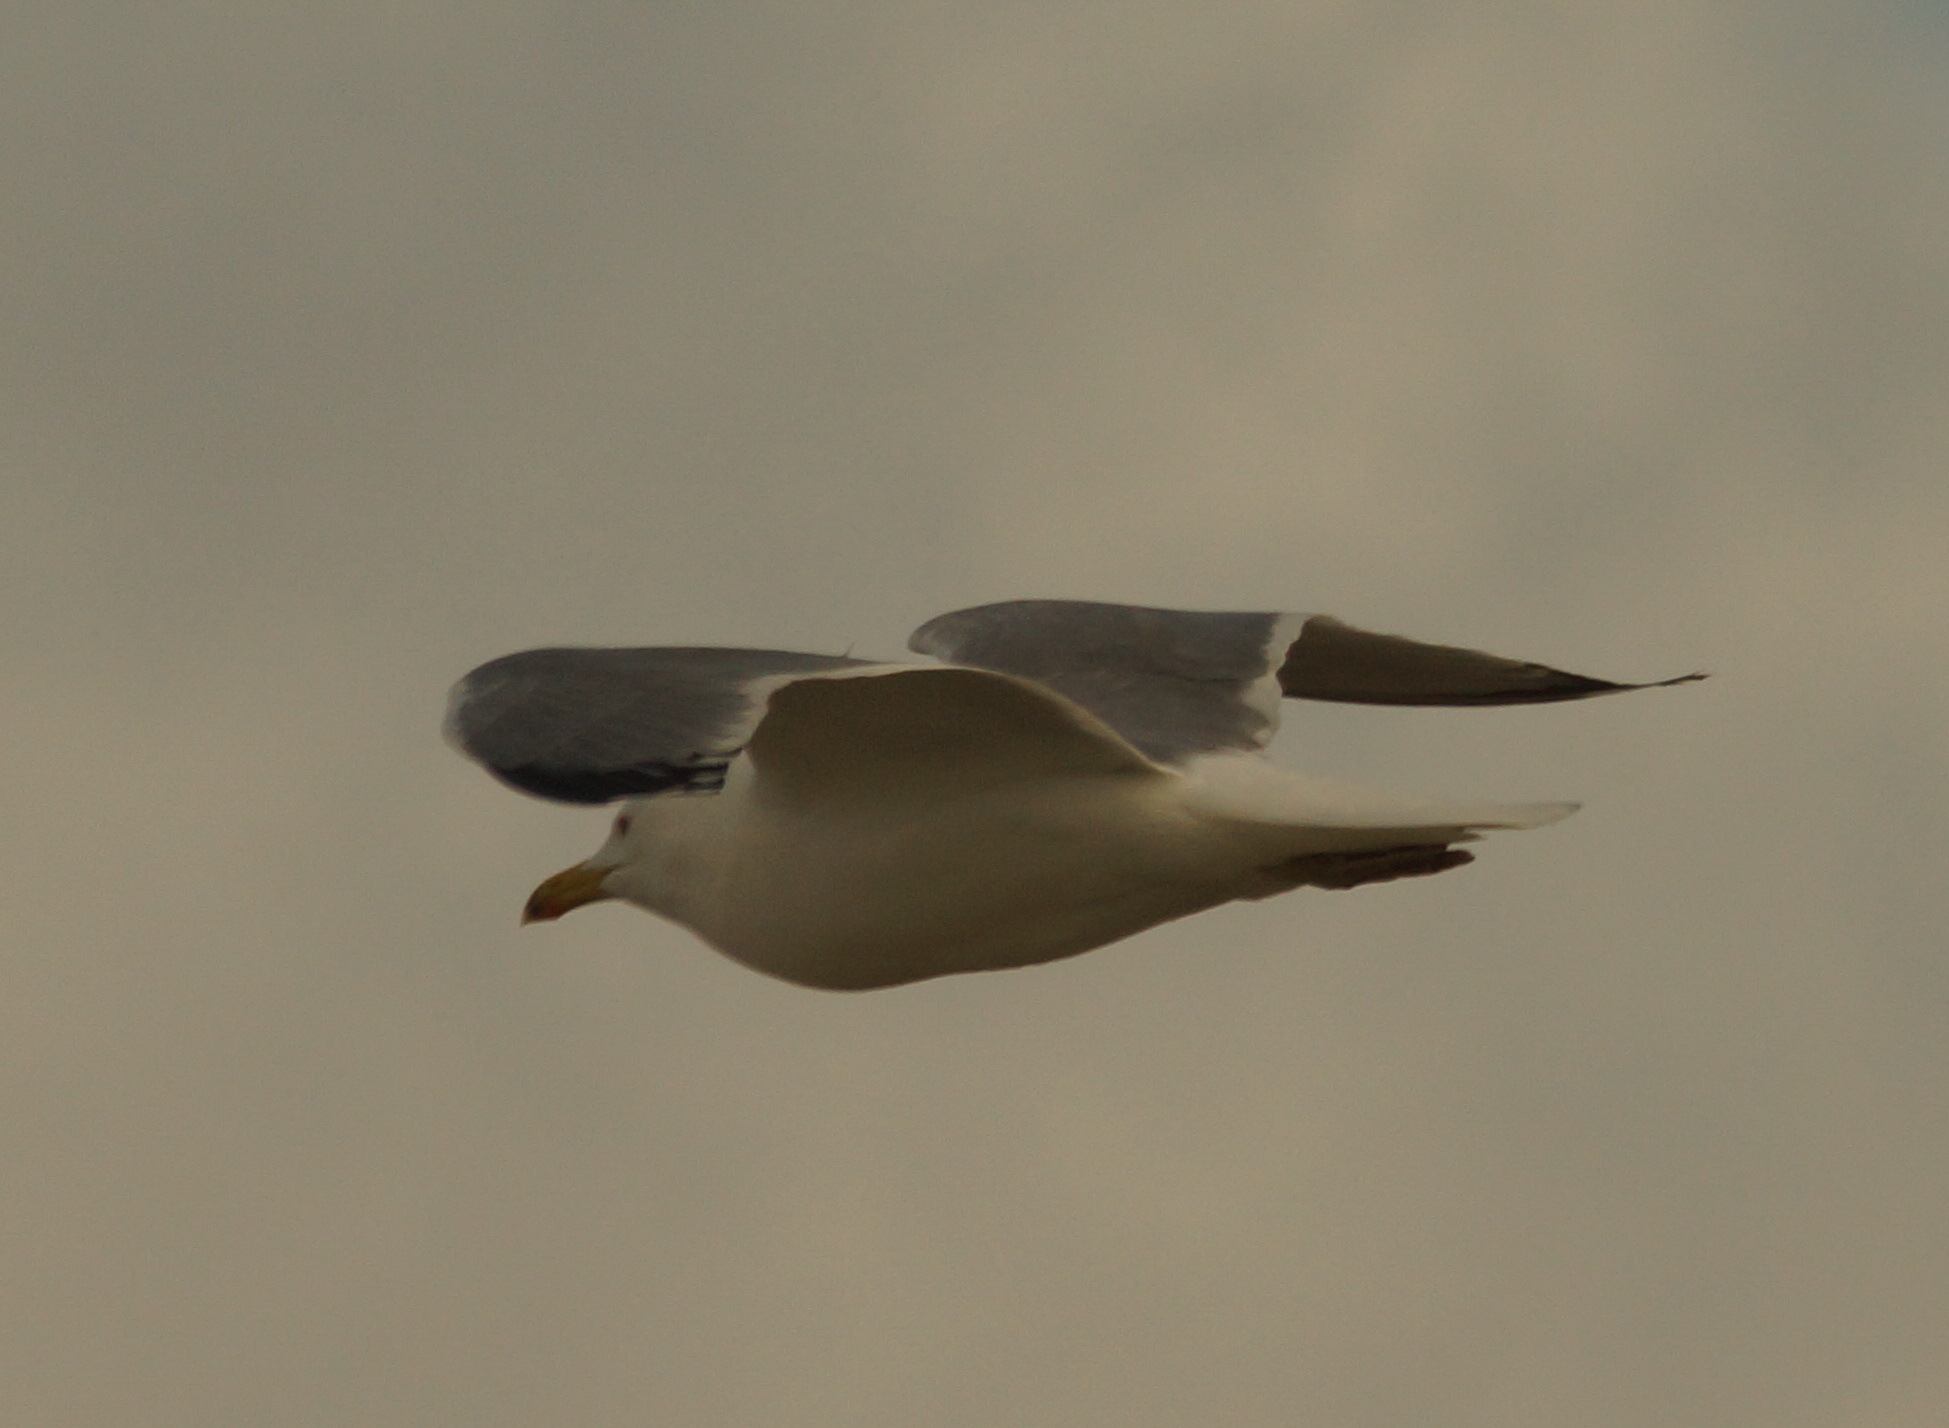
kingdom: Animalia
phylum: Chordata
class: Aves
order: Charadriiformes
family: Laridae
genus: Larus
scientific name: Larus michahellis
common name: Yellow-legged gull
